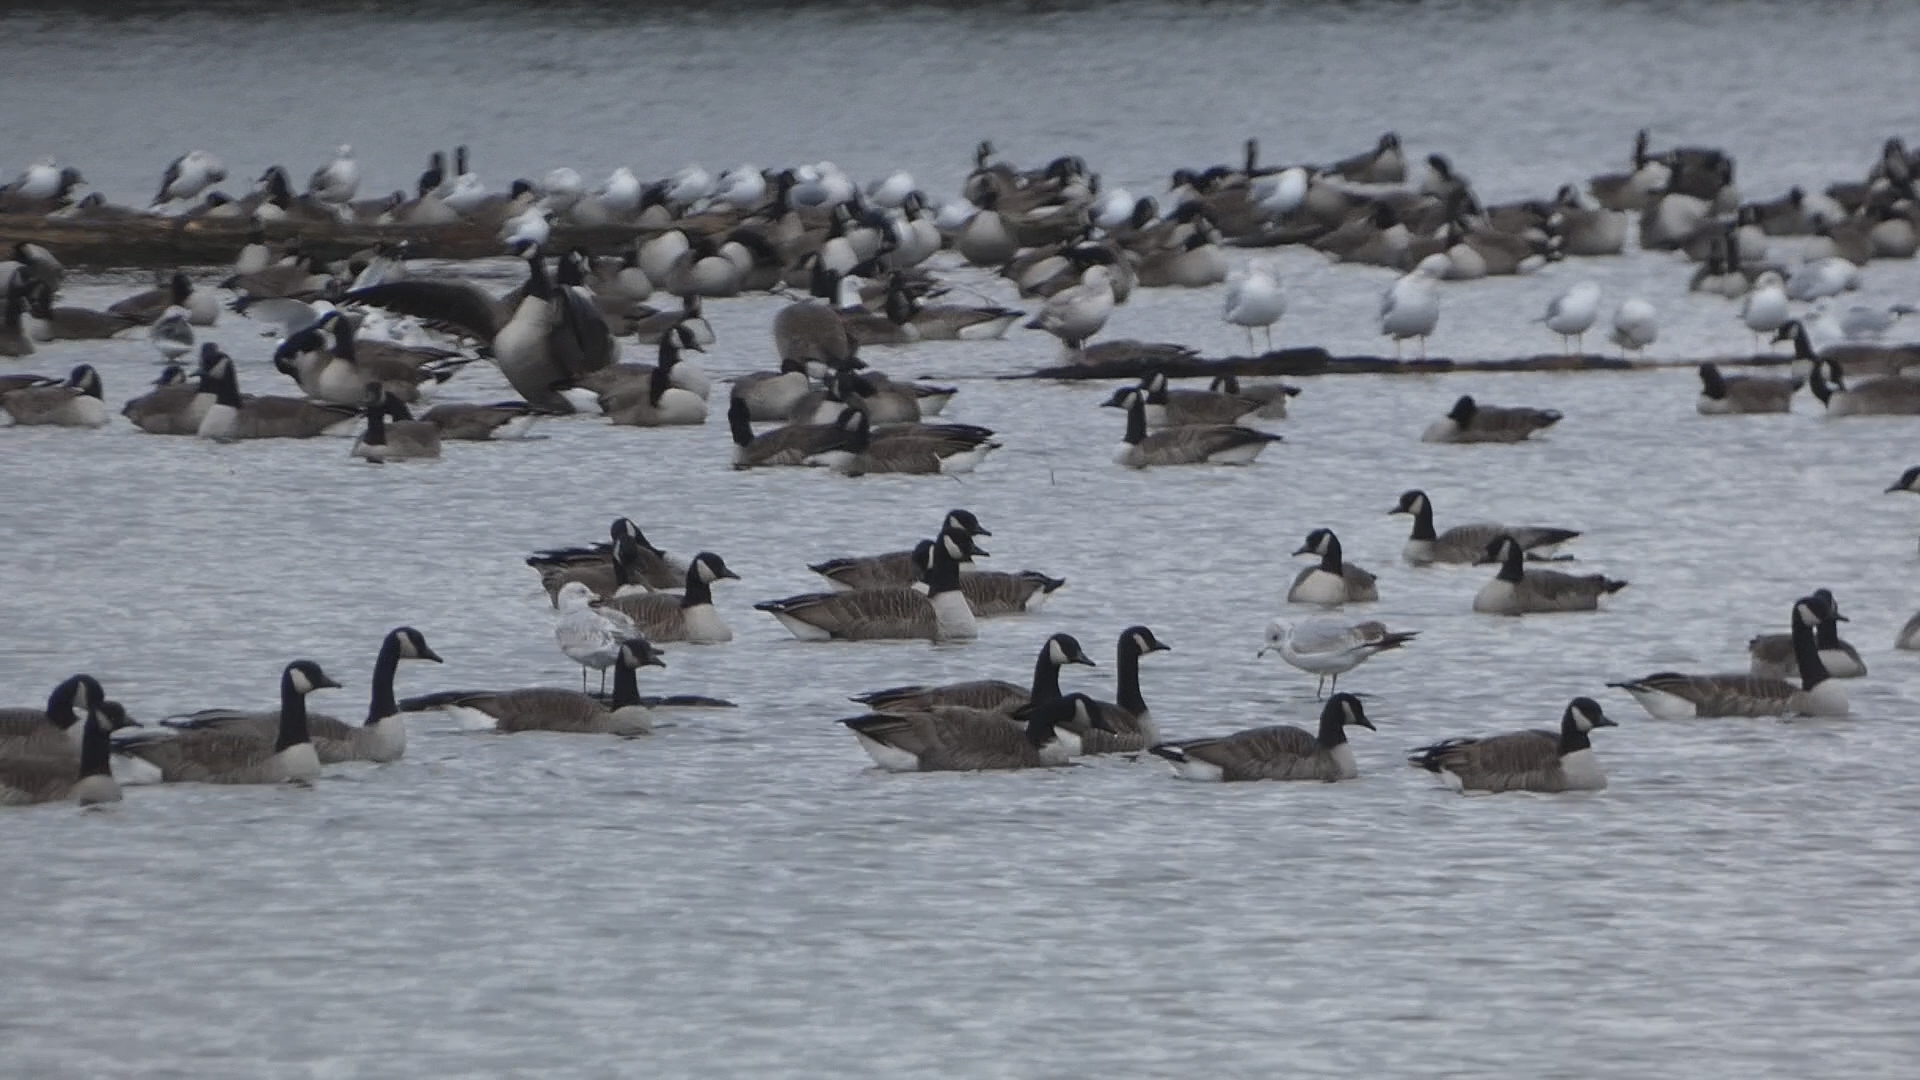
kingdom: Animalia
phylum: Chordata
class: Aves
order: Charadriiformes
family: Laridae
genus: Larus
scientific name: Larus delawarensis
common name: Ring-billed gull
